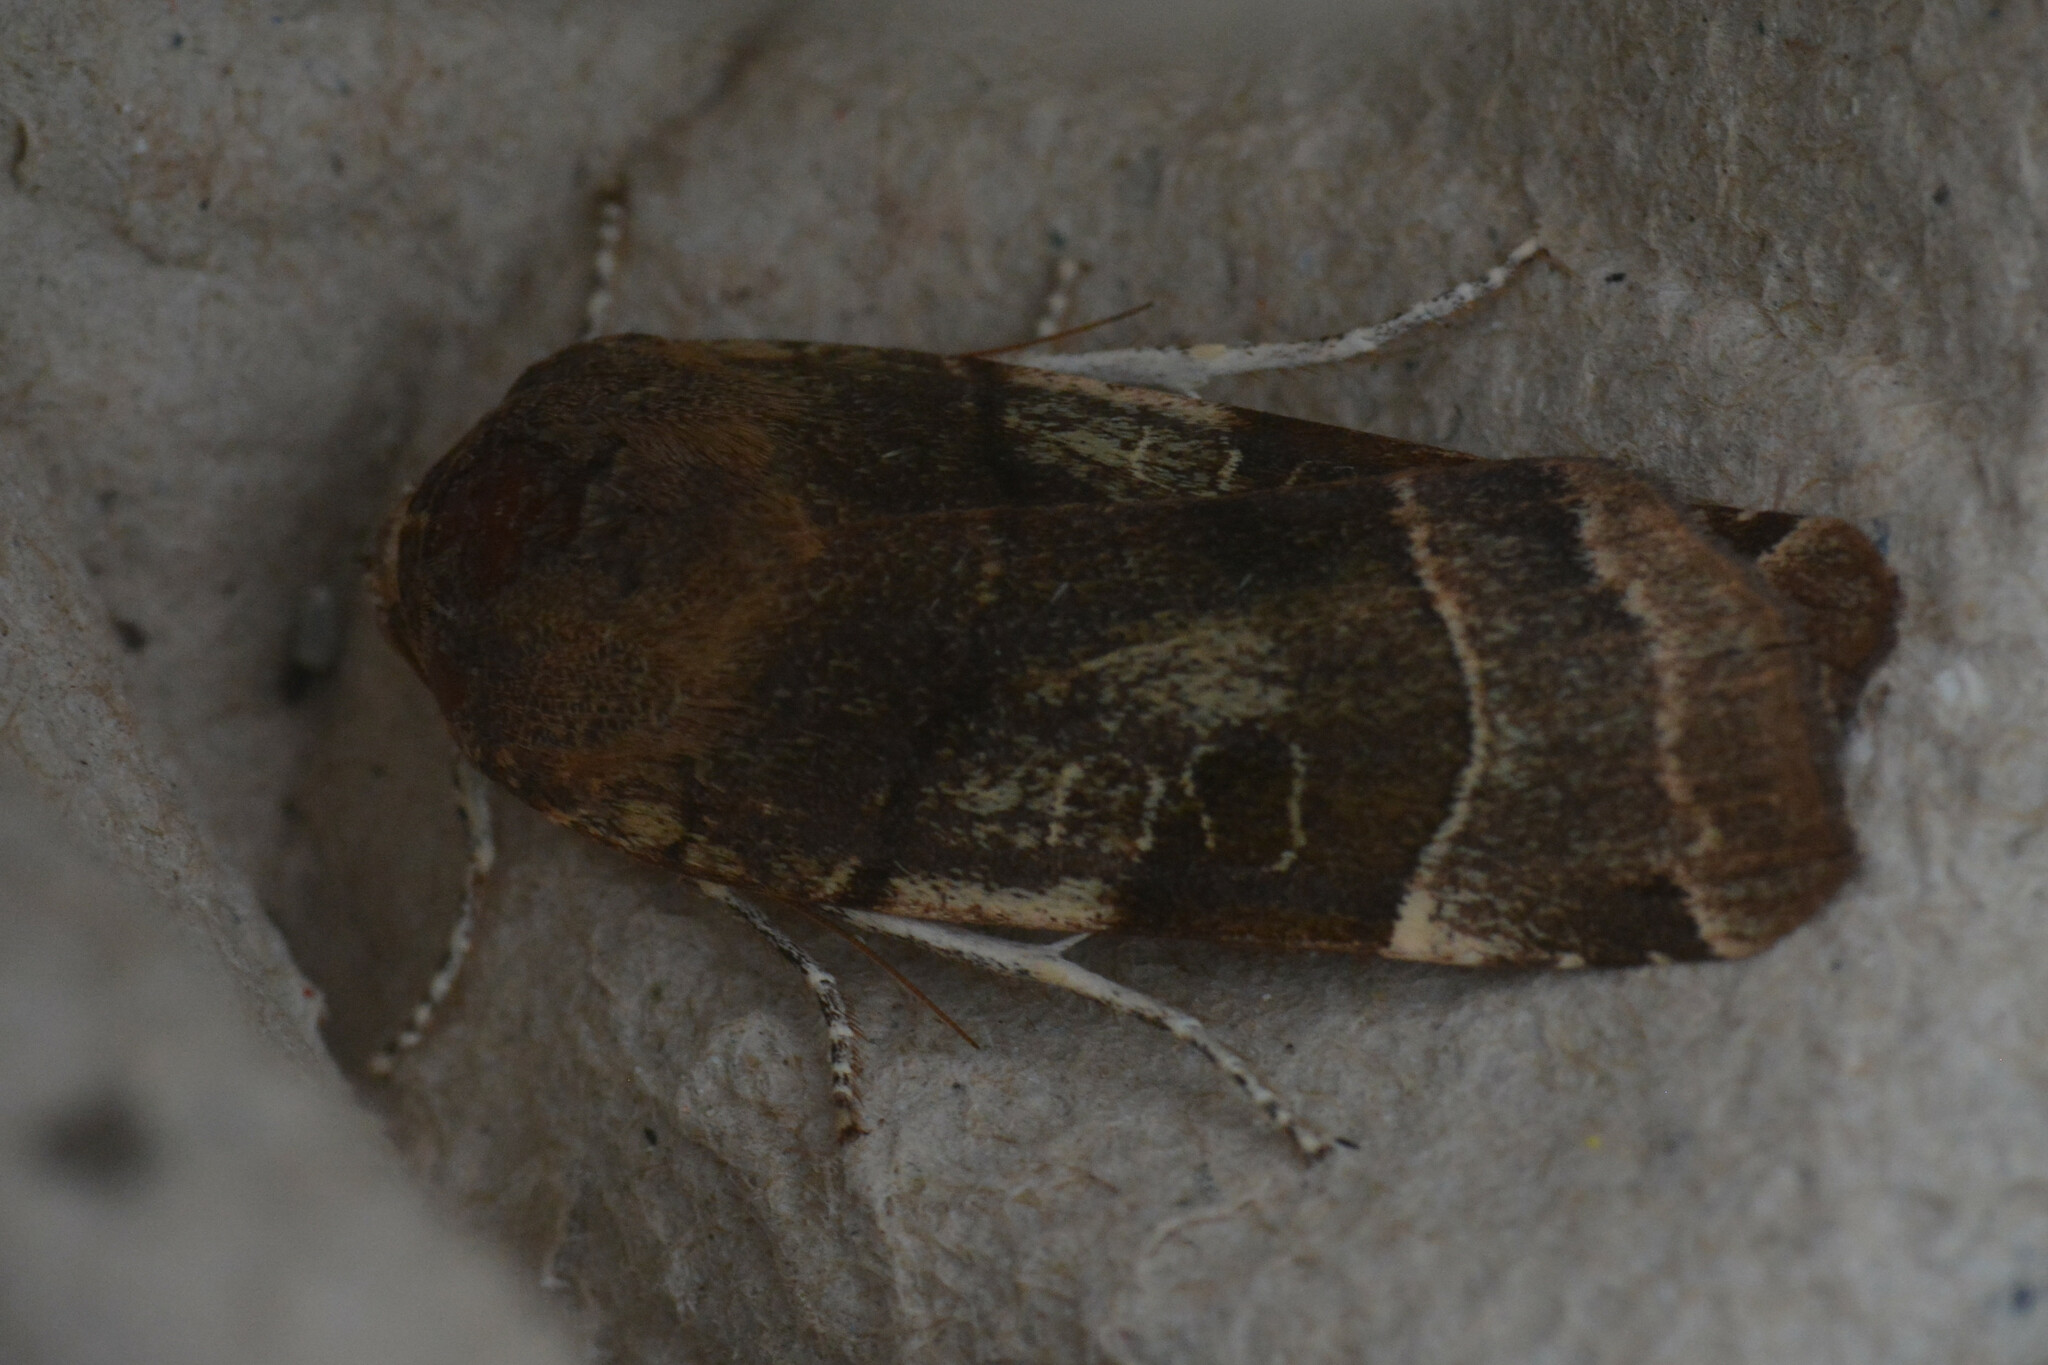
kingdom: Animalia
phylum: Arthropoda
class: Insecta
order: Lepidoptera
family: Noctuidae
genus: Noctua
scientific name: Noctua fimbriata
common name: Broad-bordered yellow underwing
